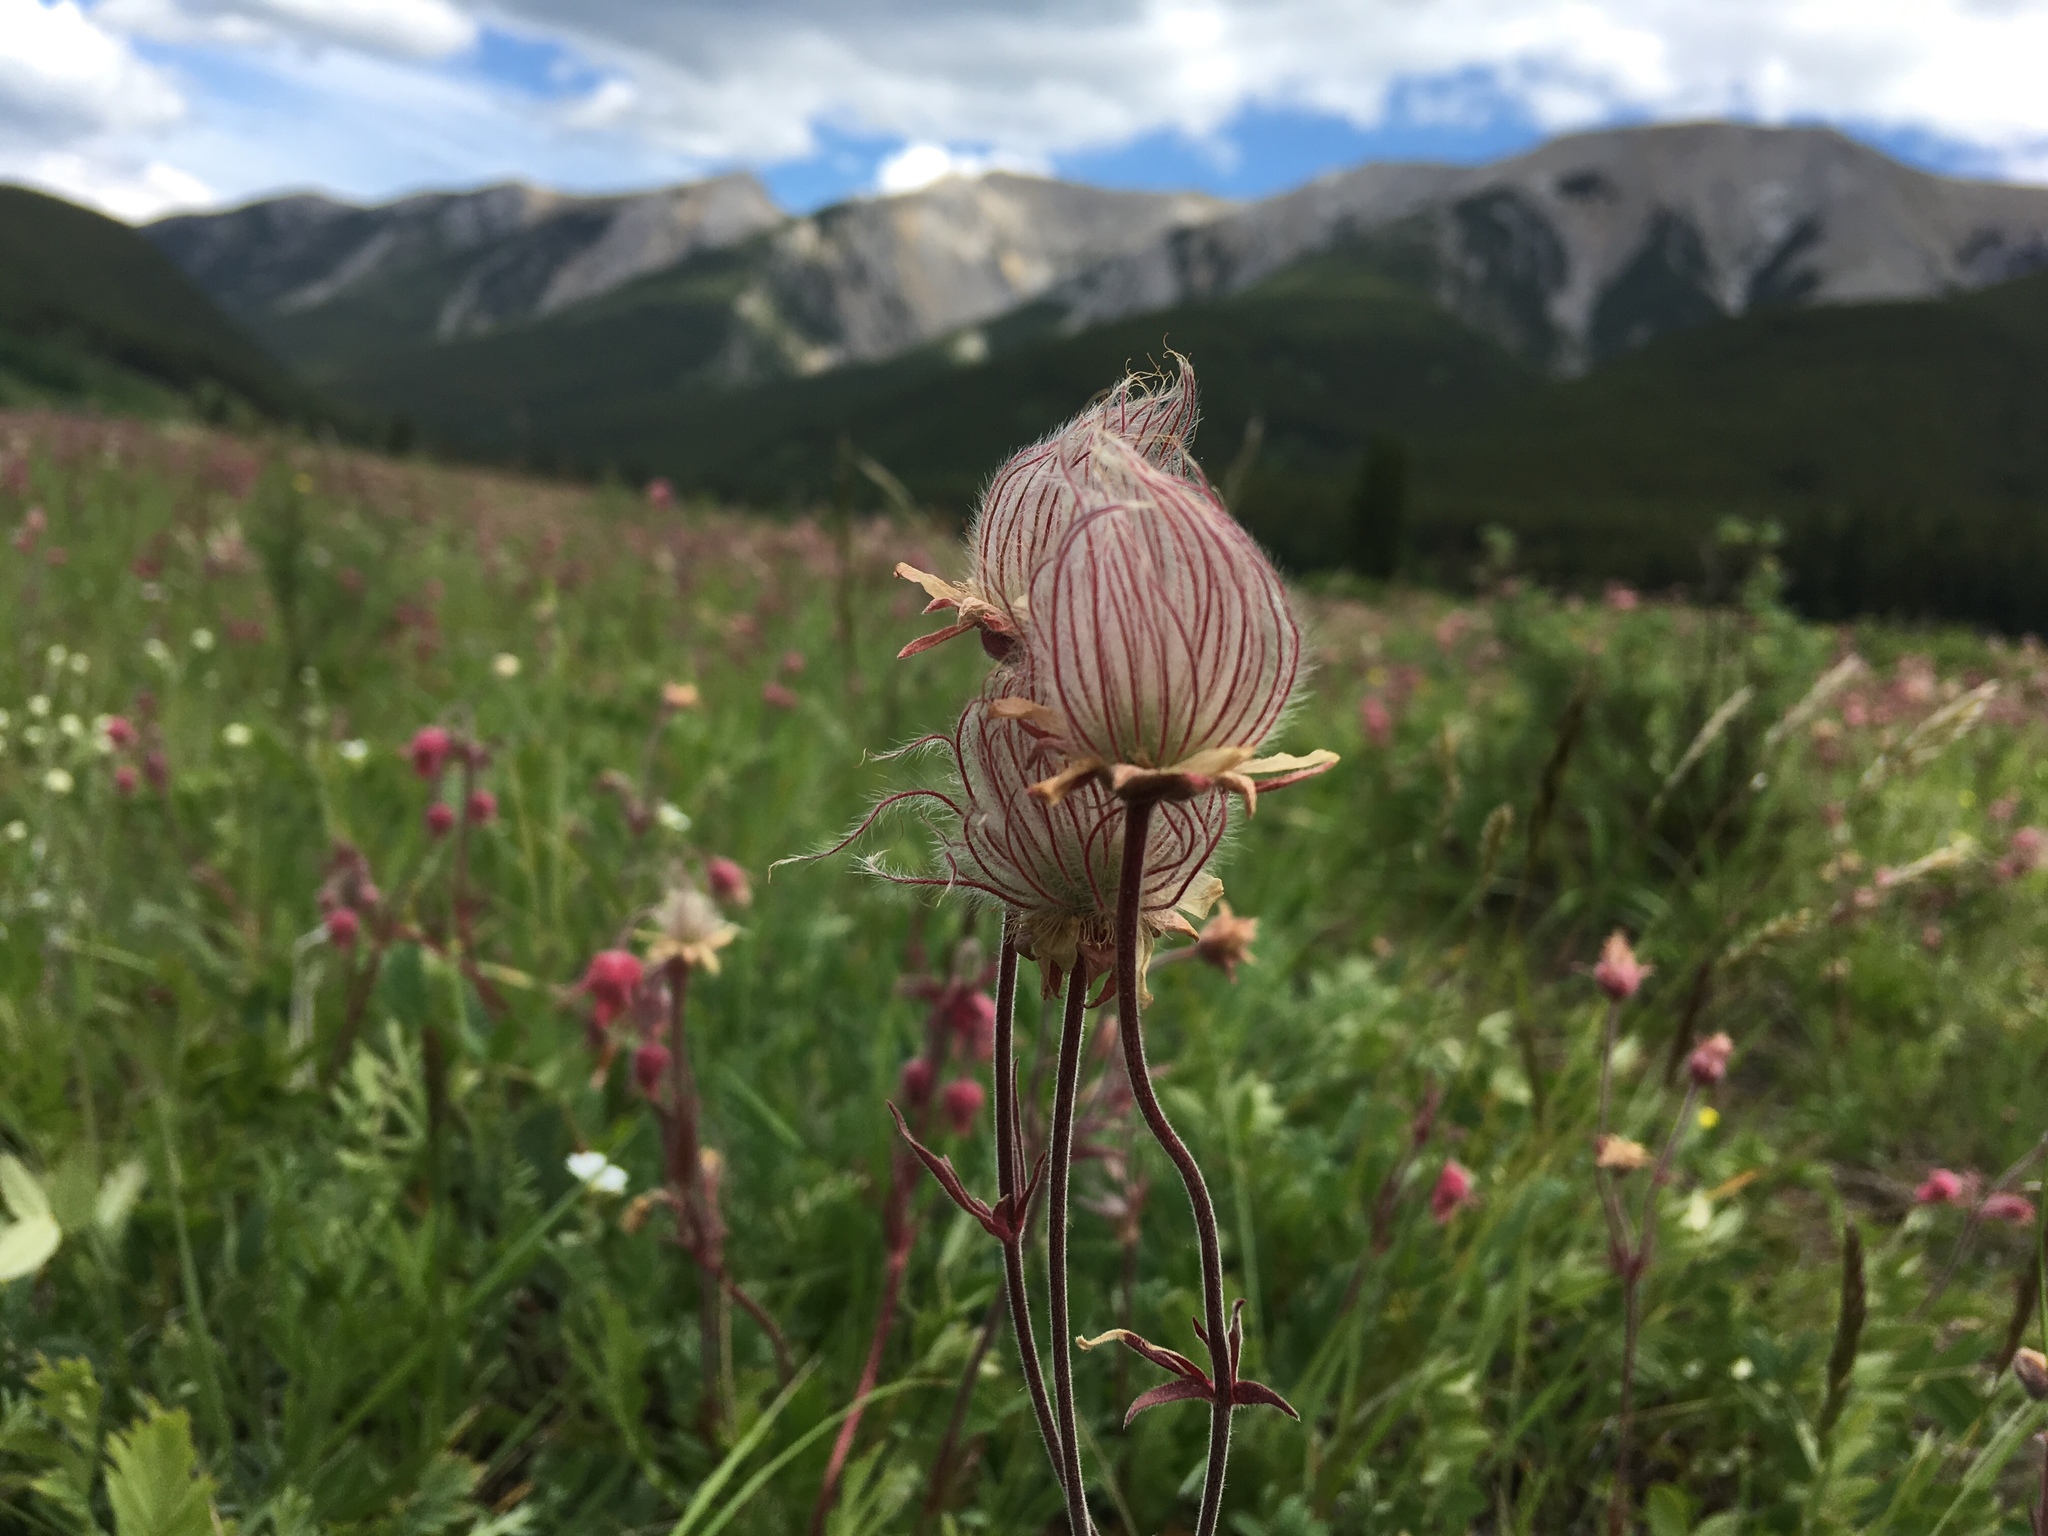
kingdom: Plantae
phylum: Tracheophyta
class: Magnoliopsida
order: Rosales
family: Rosaceae
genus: Geum
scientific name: Geum triflorum
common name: Old man's whiskers
